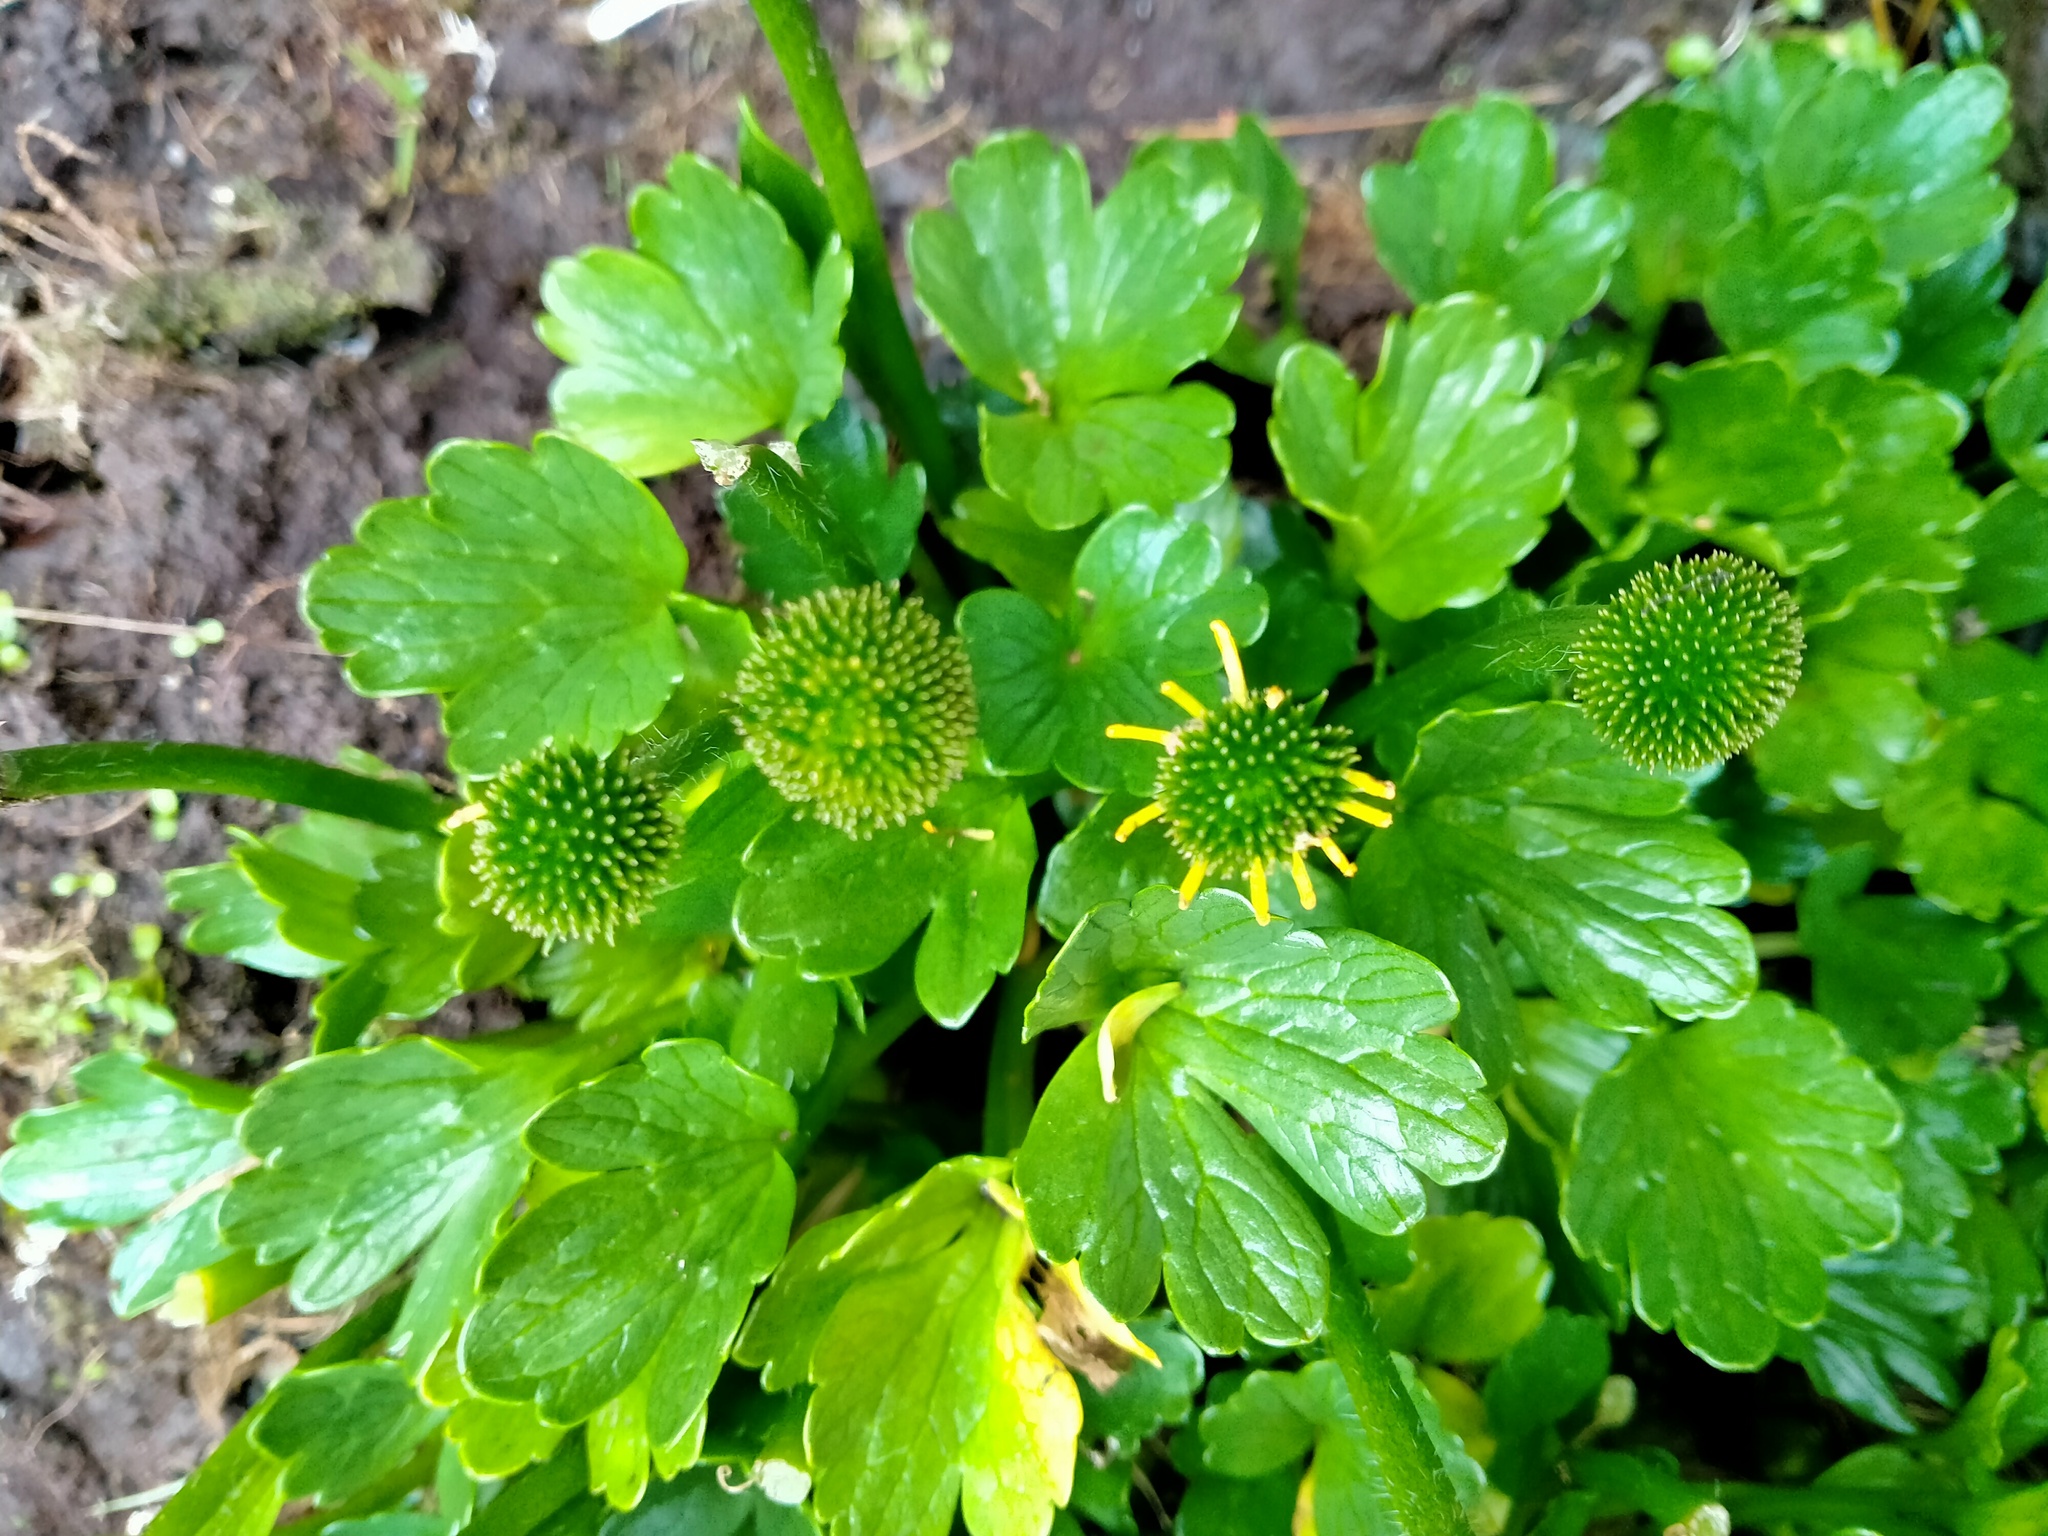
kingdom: Plantae
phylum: Tracheophyta
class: Magnoliopsida
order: Ranunculales
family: Ranunculaceae
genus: Ranunculus
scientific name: Ranunculus pinguis
